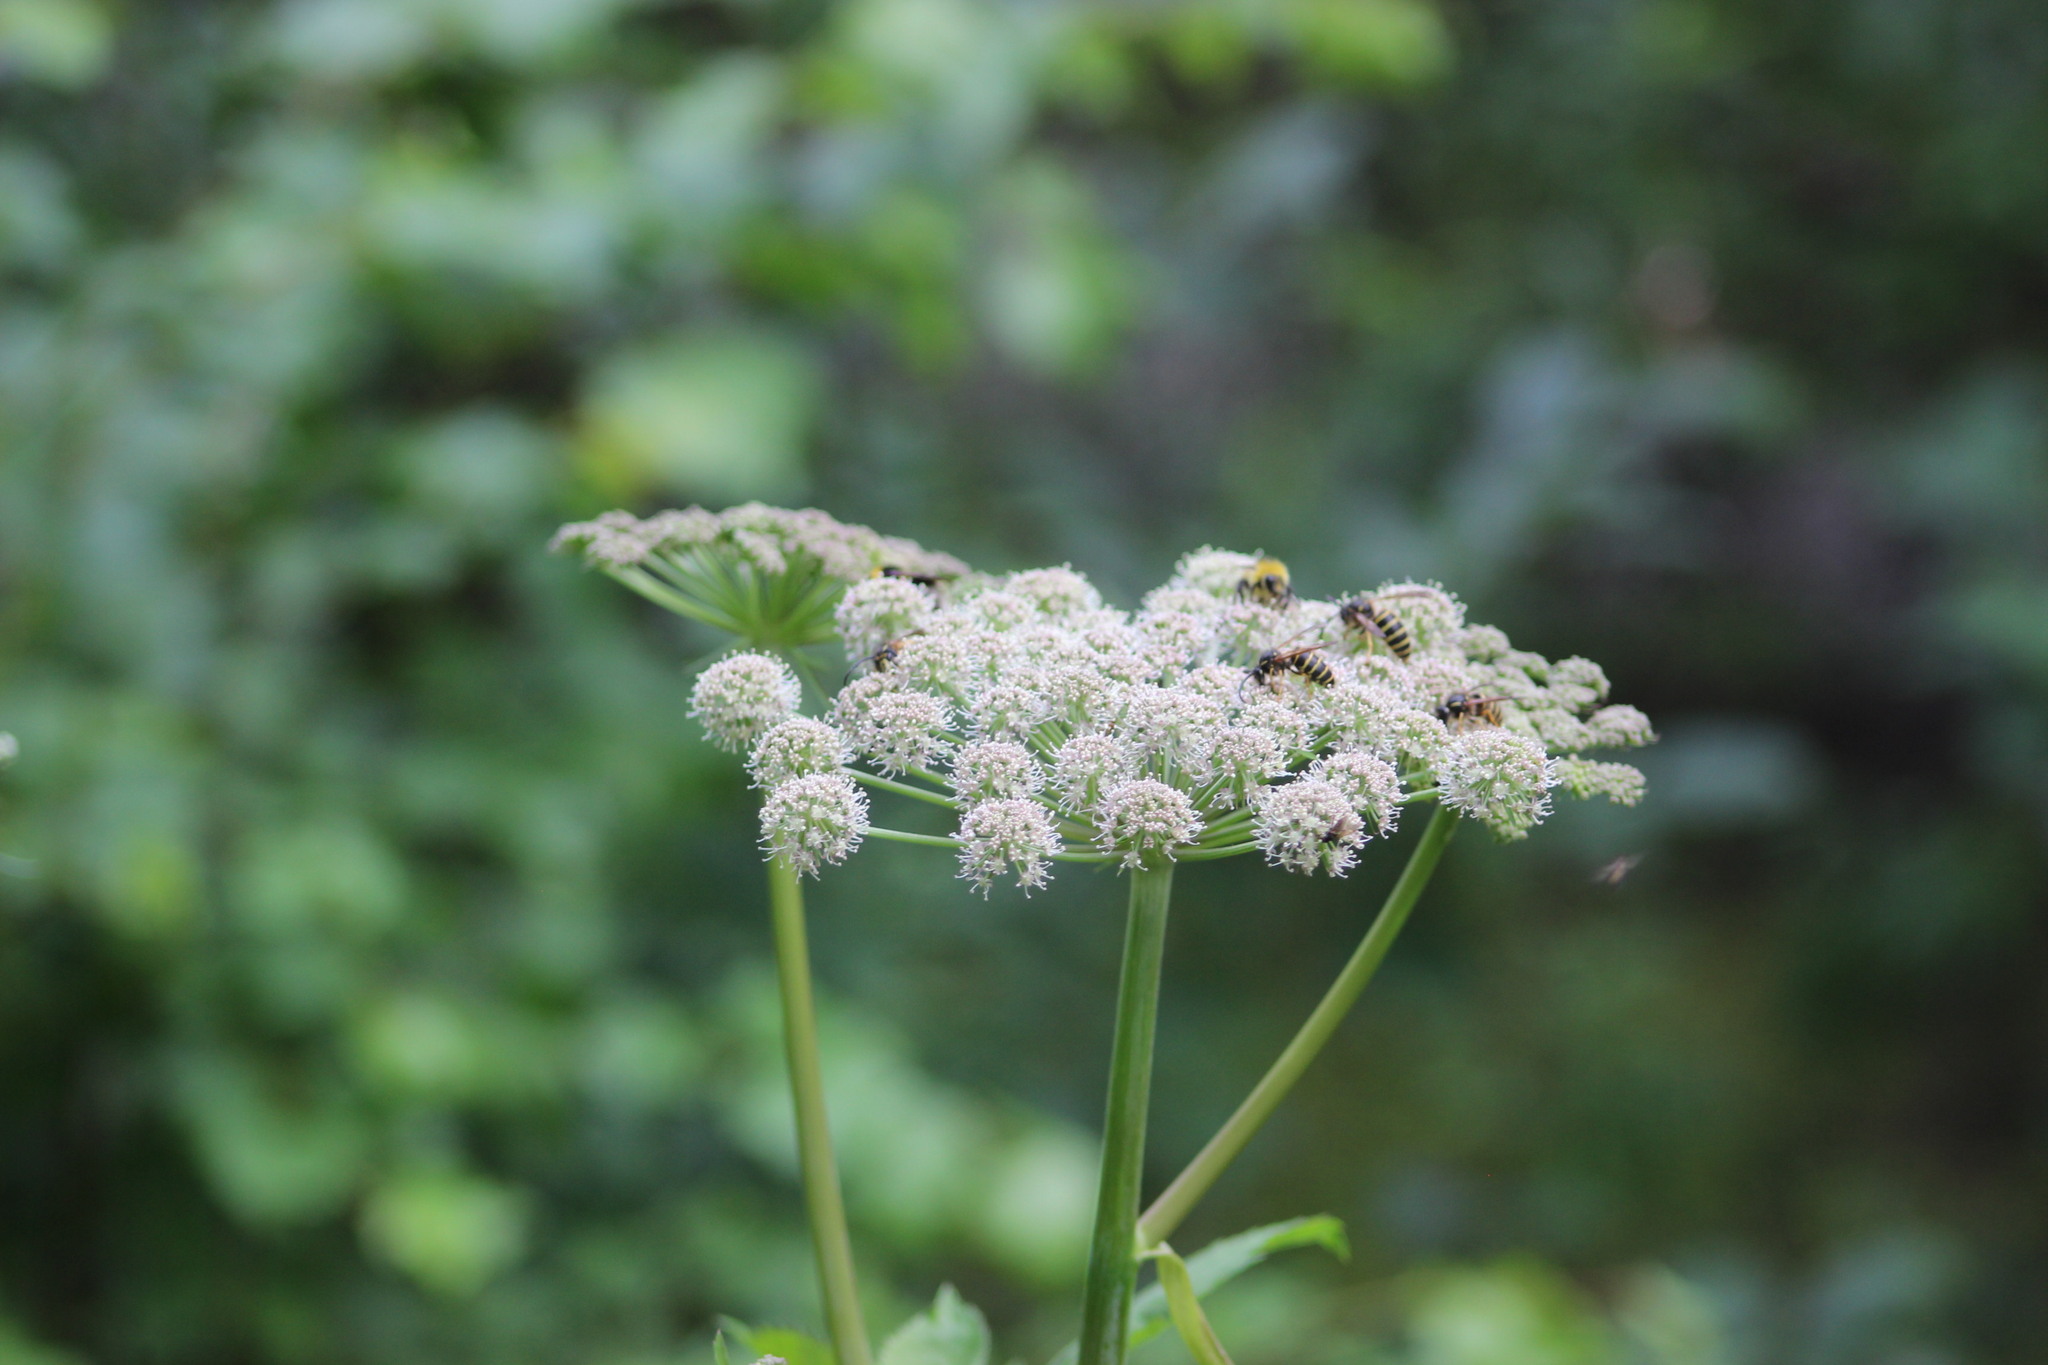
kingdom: Plantae
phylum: Tracheophyta
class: Magnoliopsida
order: Apiales
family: Apiaceae
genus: Angelica
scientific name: Angelica sylvestris
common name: Wild angelica
